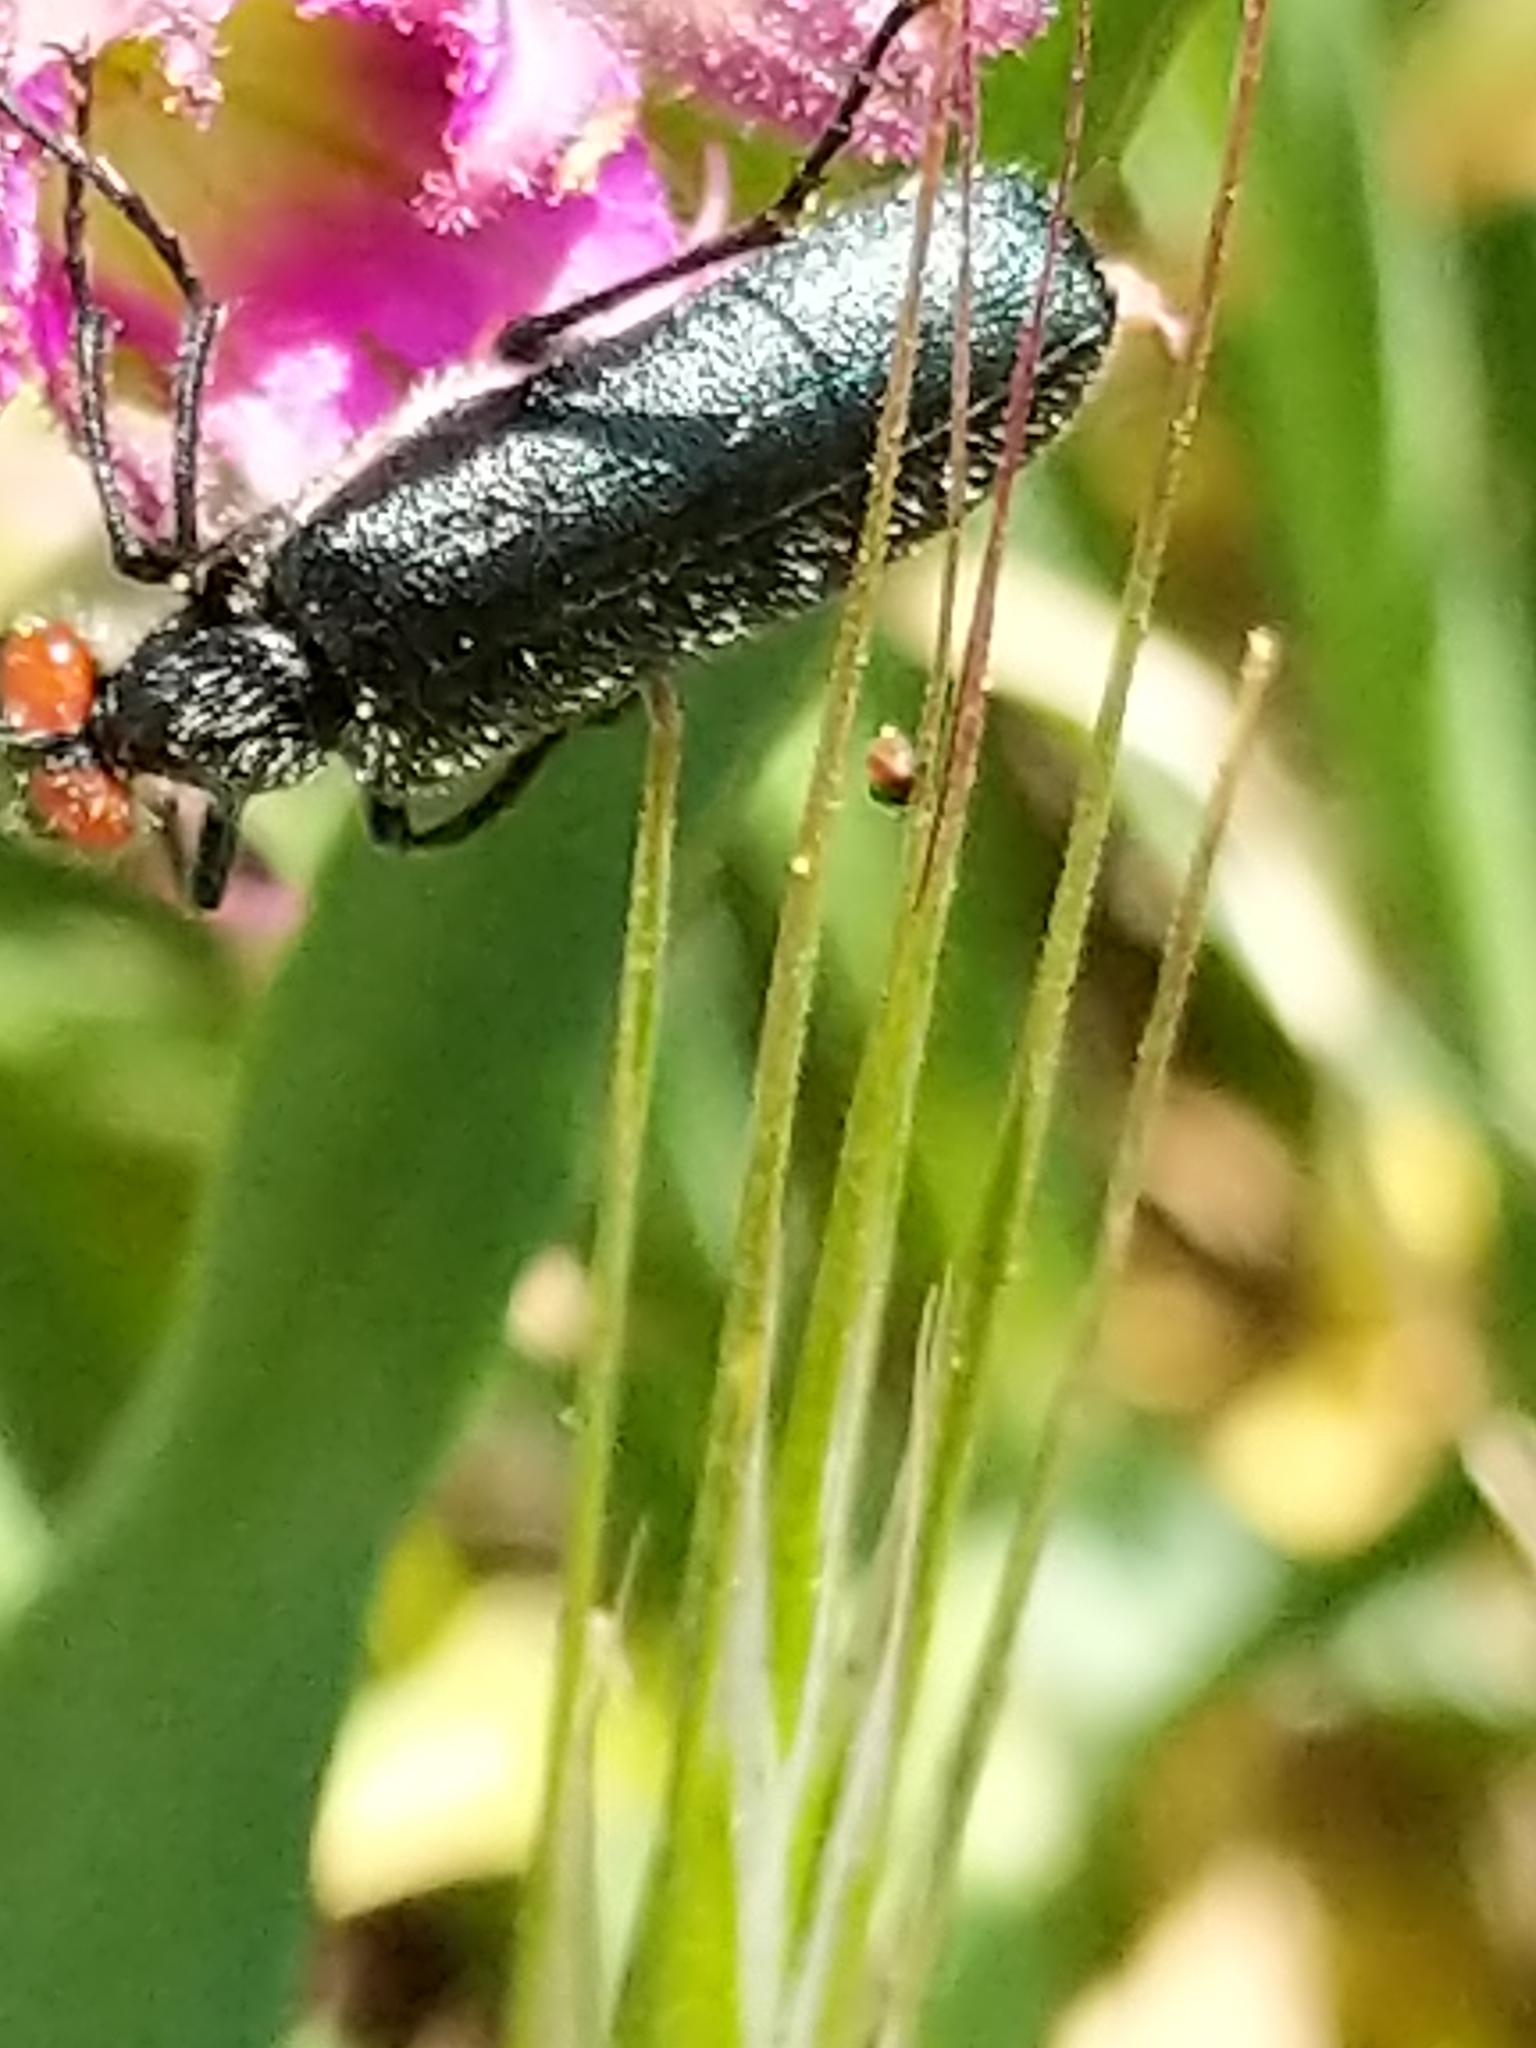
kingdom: Animalia
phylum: Arthropoda
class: Insecta
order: Coleoptera
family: Meloidae
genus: Lytta
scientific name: Lytta auriculata
